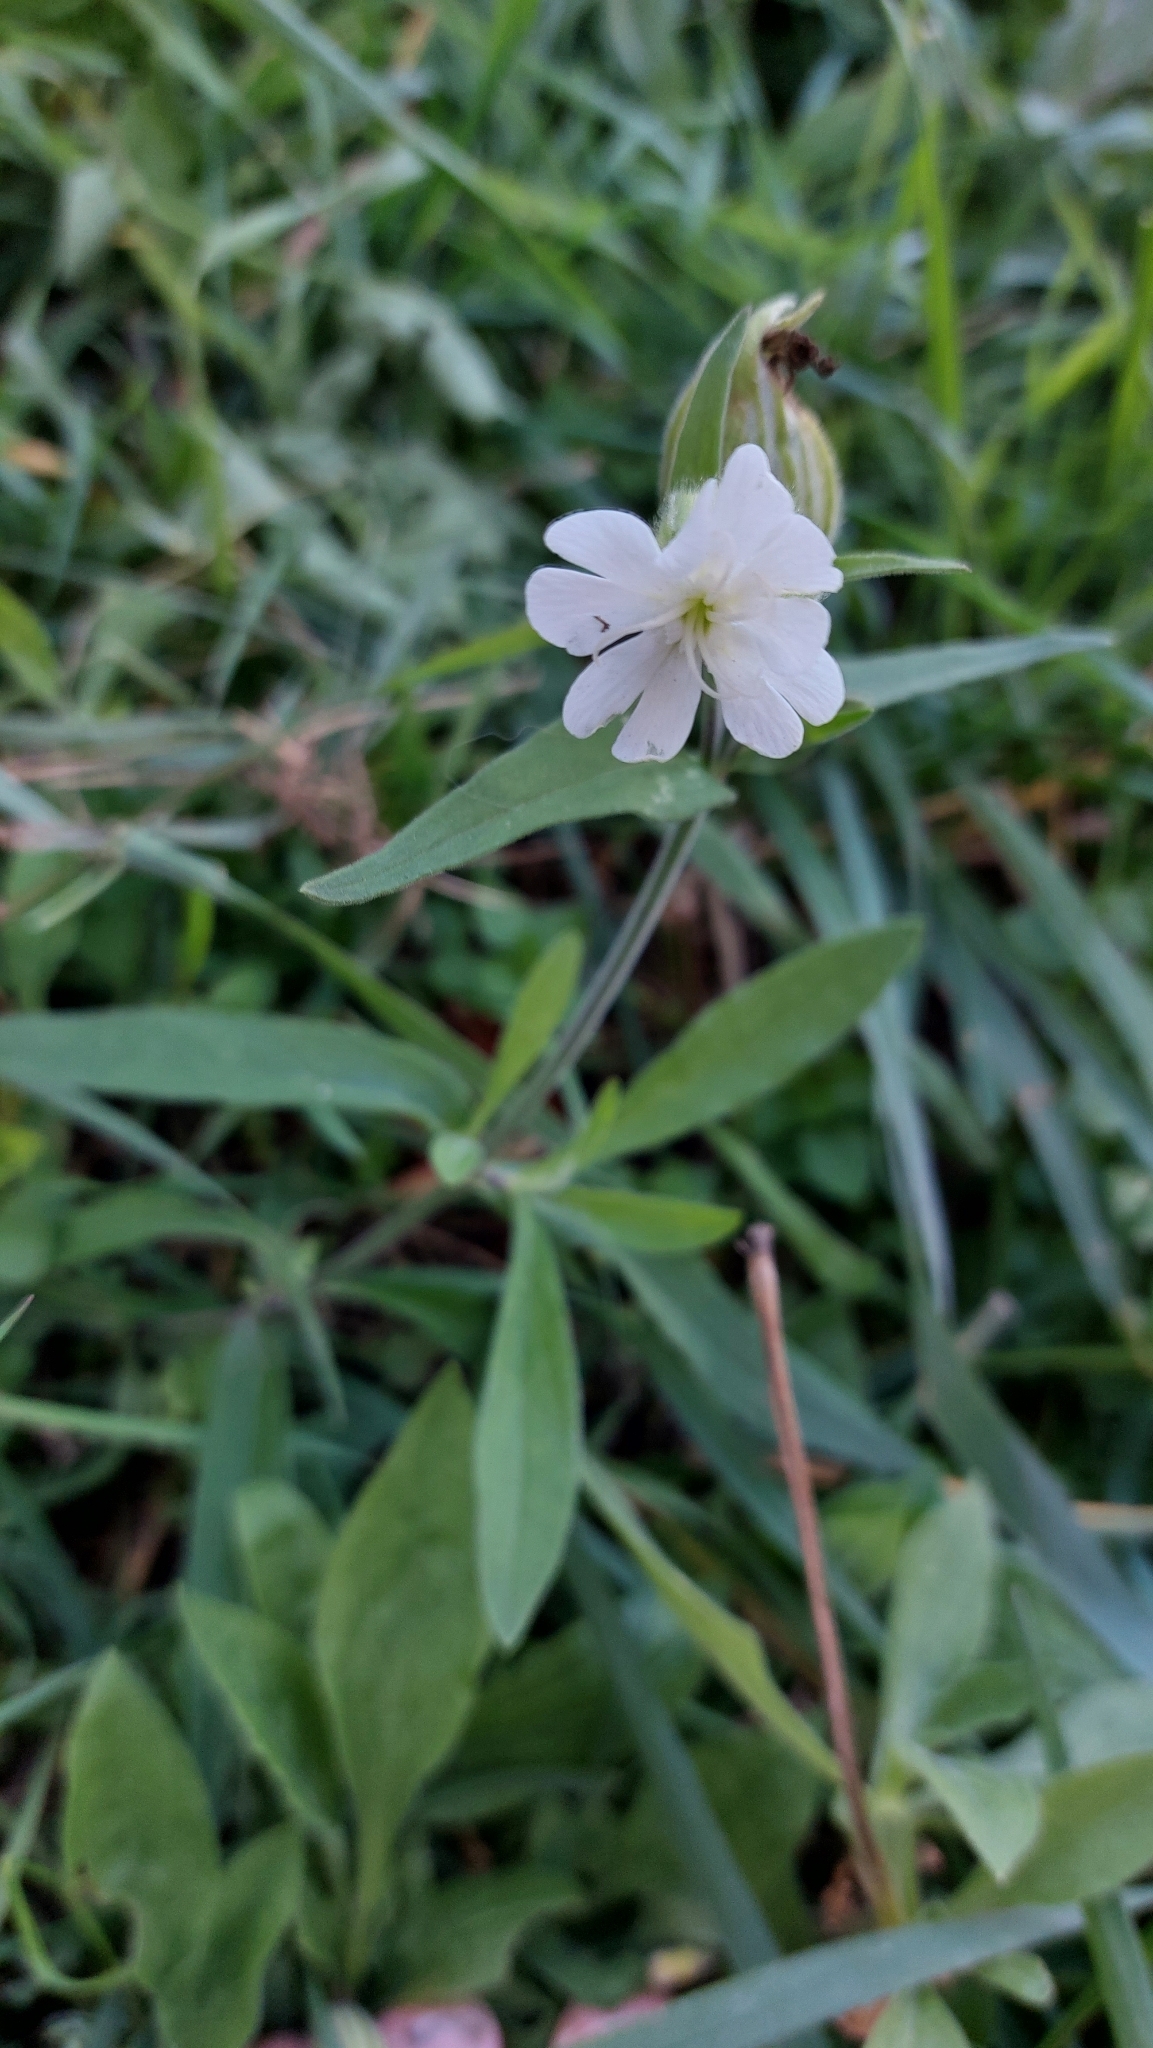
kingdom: Plantae
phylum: Tracheophyta
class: Magnoliopsida
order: Caryophyllales
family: Caryophyllaceae
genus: Silene
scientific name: Silene latifolia
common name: White campion
